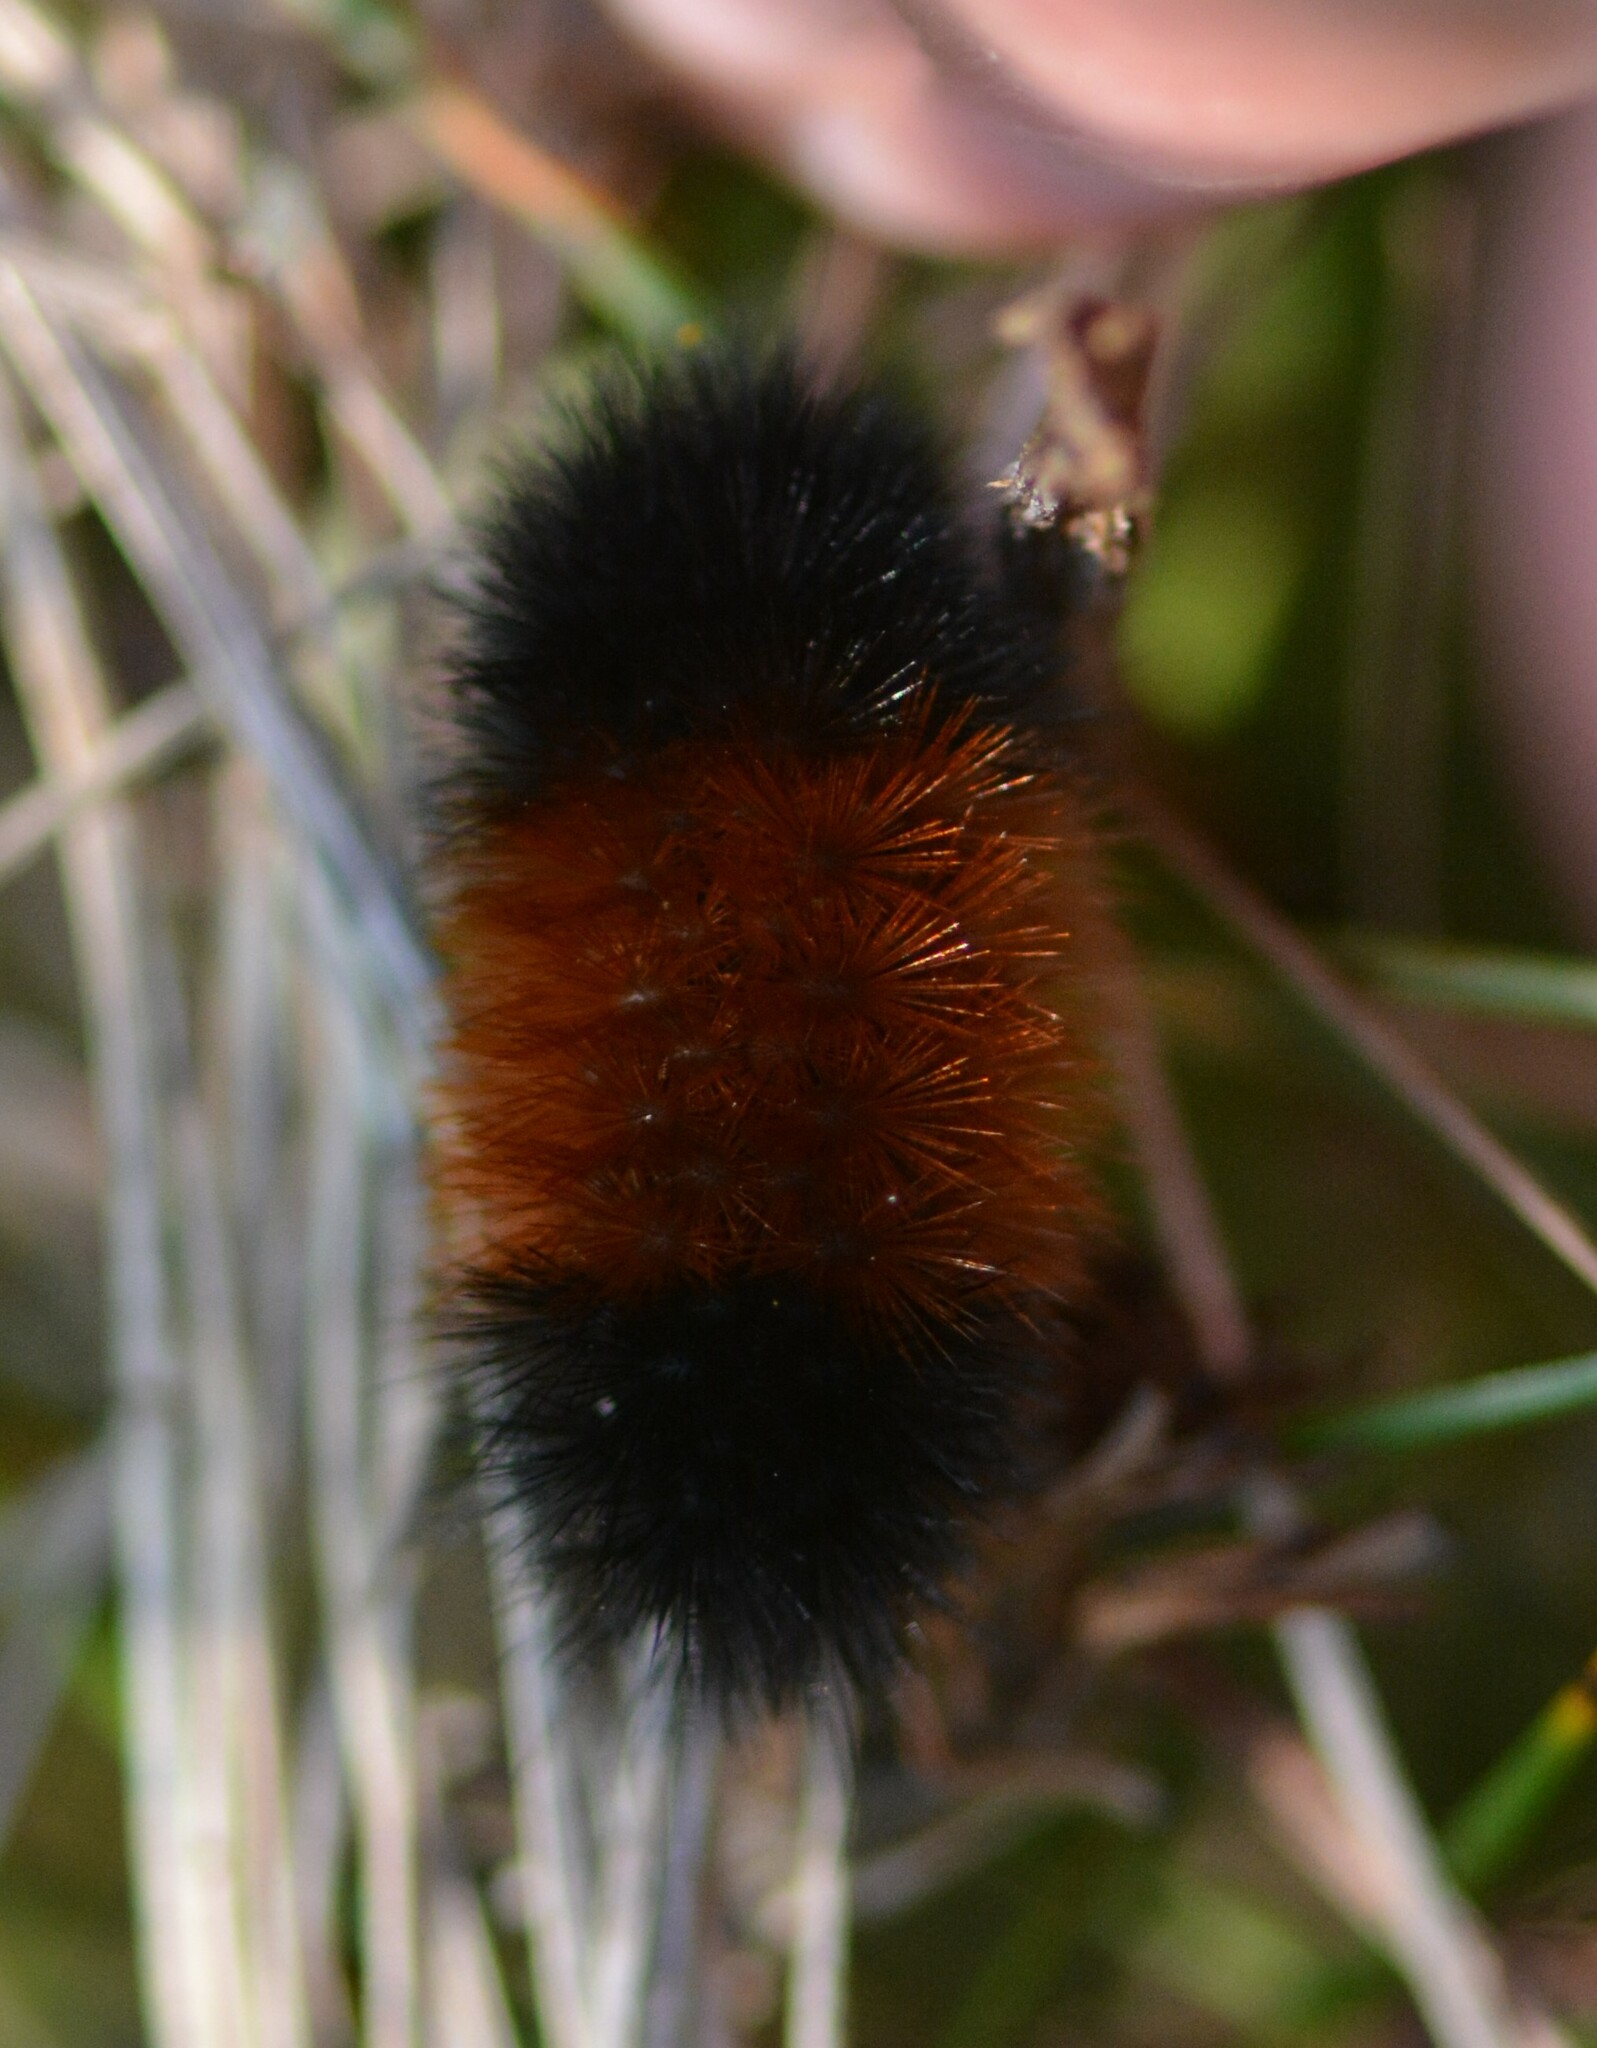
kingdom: Animalia
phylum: Arthropoda
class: Insecta
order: Lepidoptera
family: Erebidae
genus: Pyrrharctia
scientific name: Pyrrharctia isabella
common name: Isabella tiger moth
